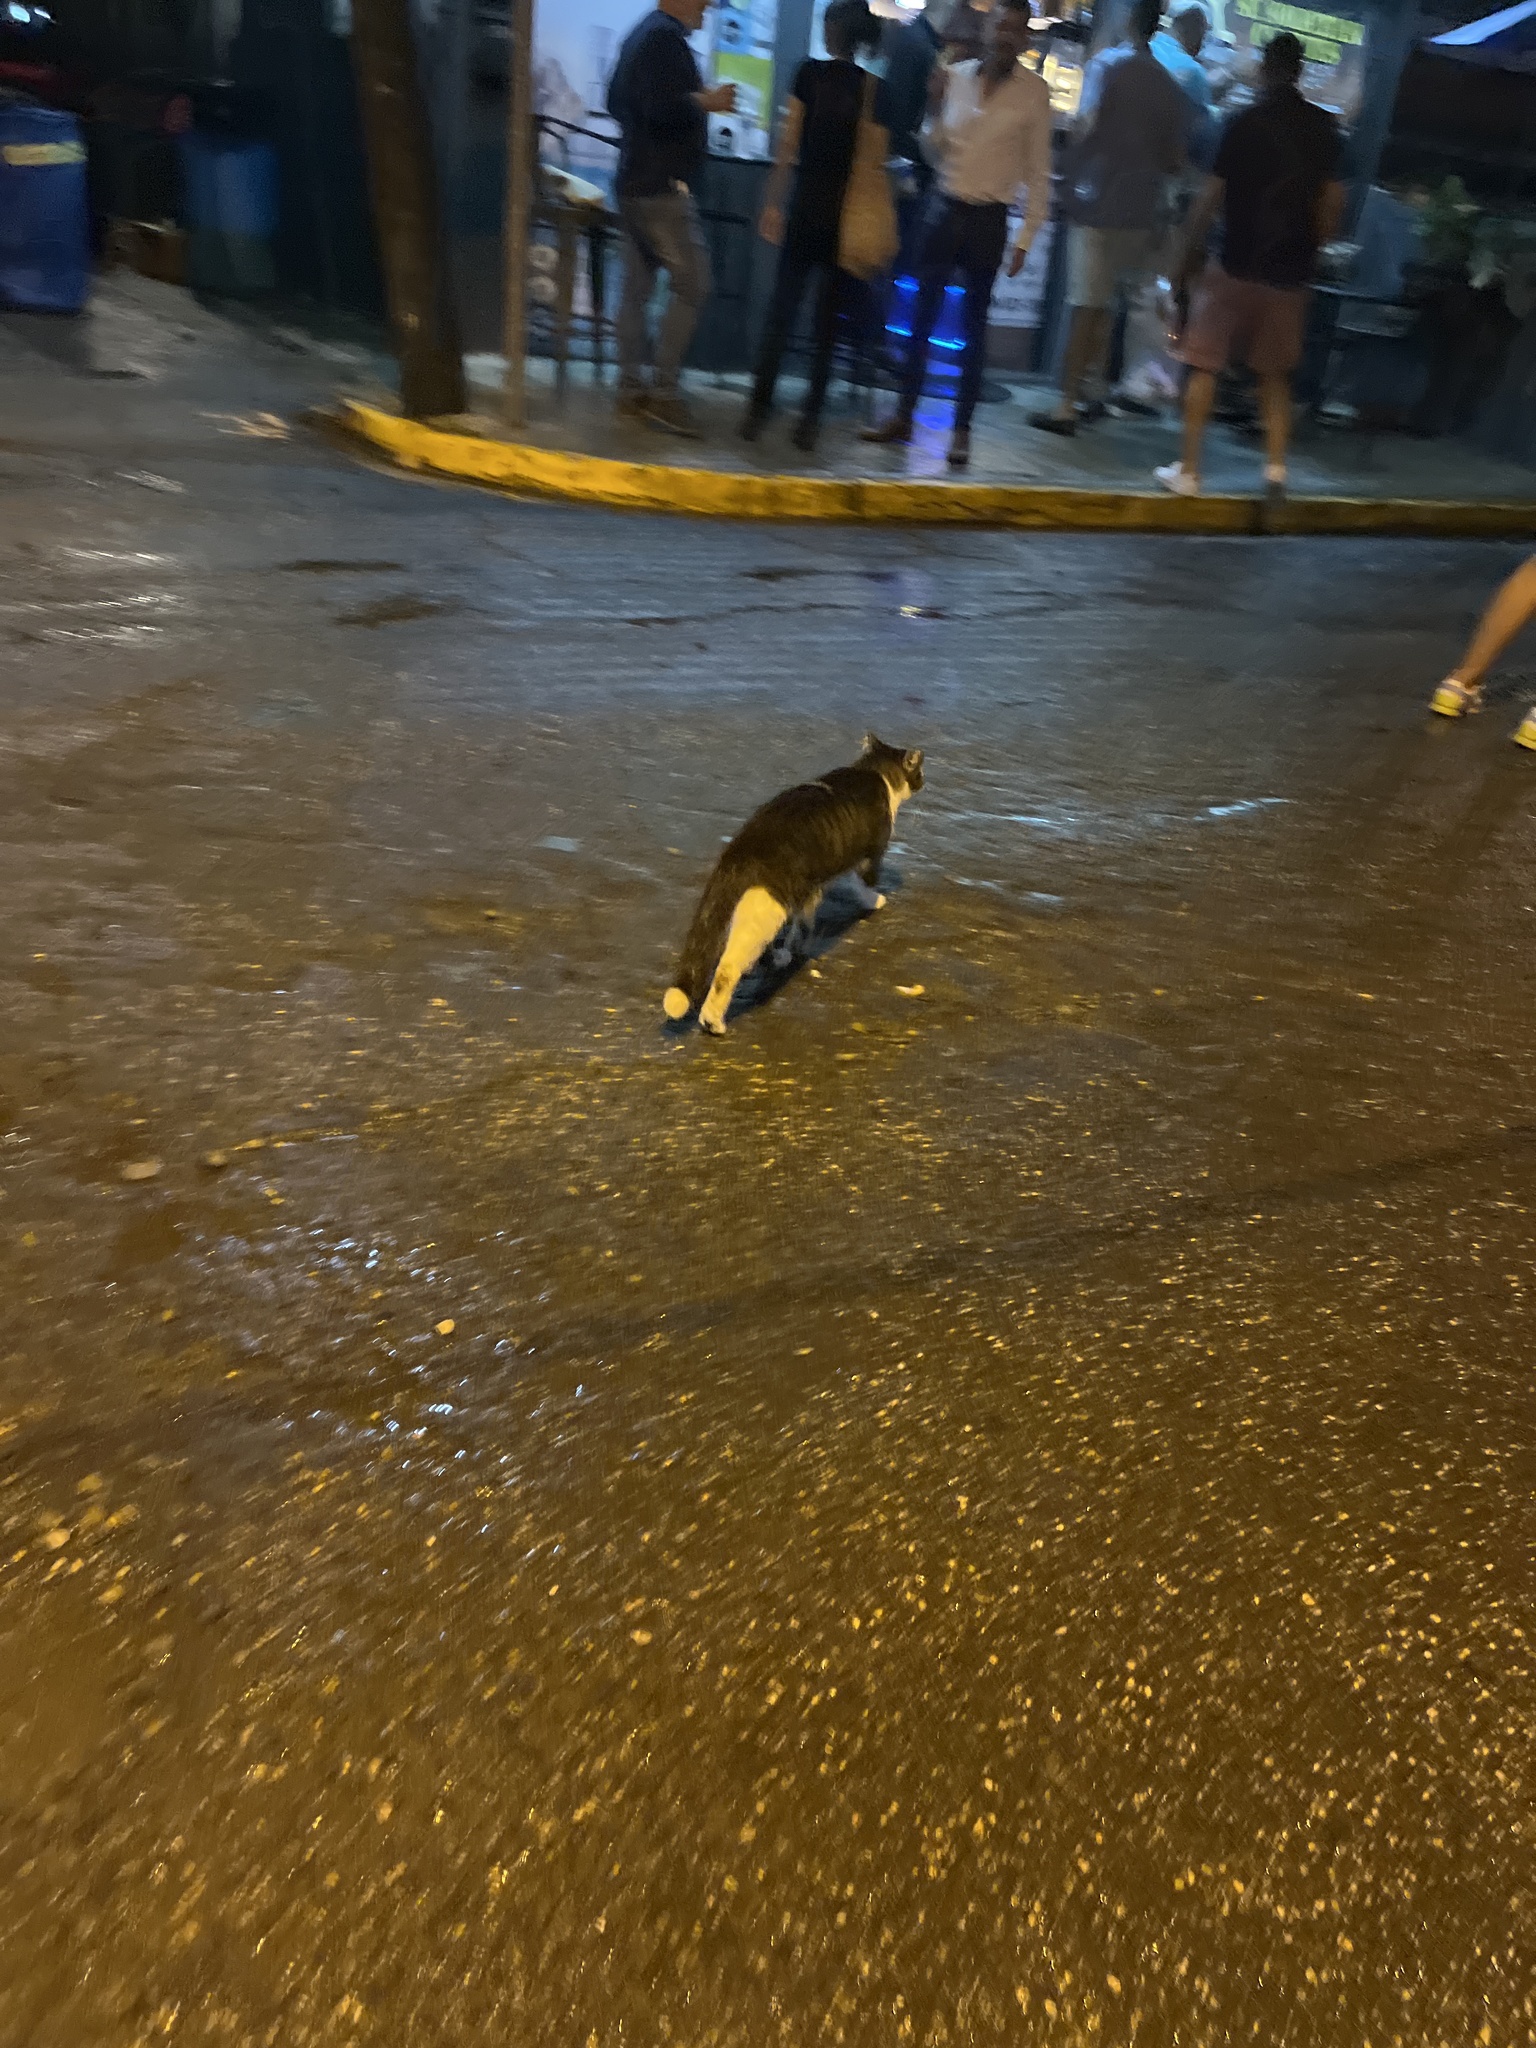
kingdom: Animalia
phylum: Chordata
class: Mammalia
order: Carnivora
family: Felidae
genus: Felis
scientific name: Felis catus
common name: Domestic cat
